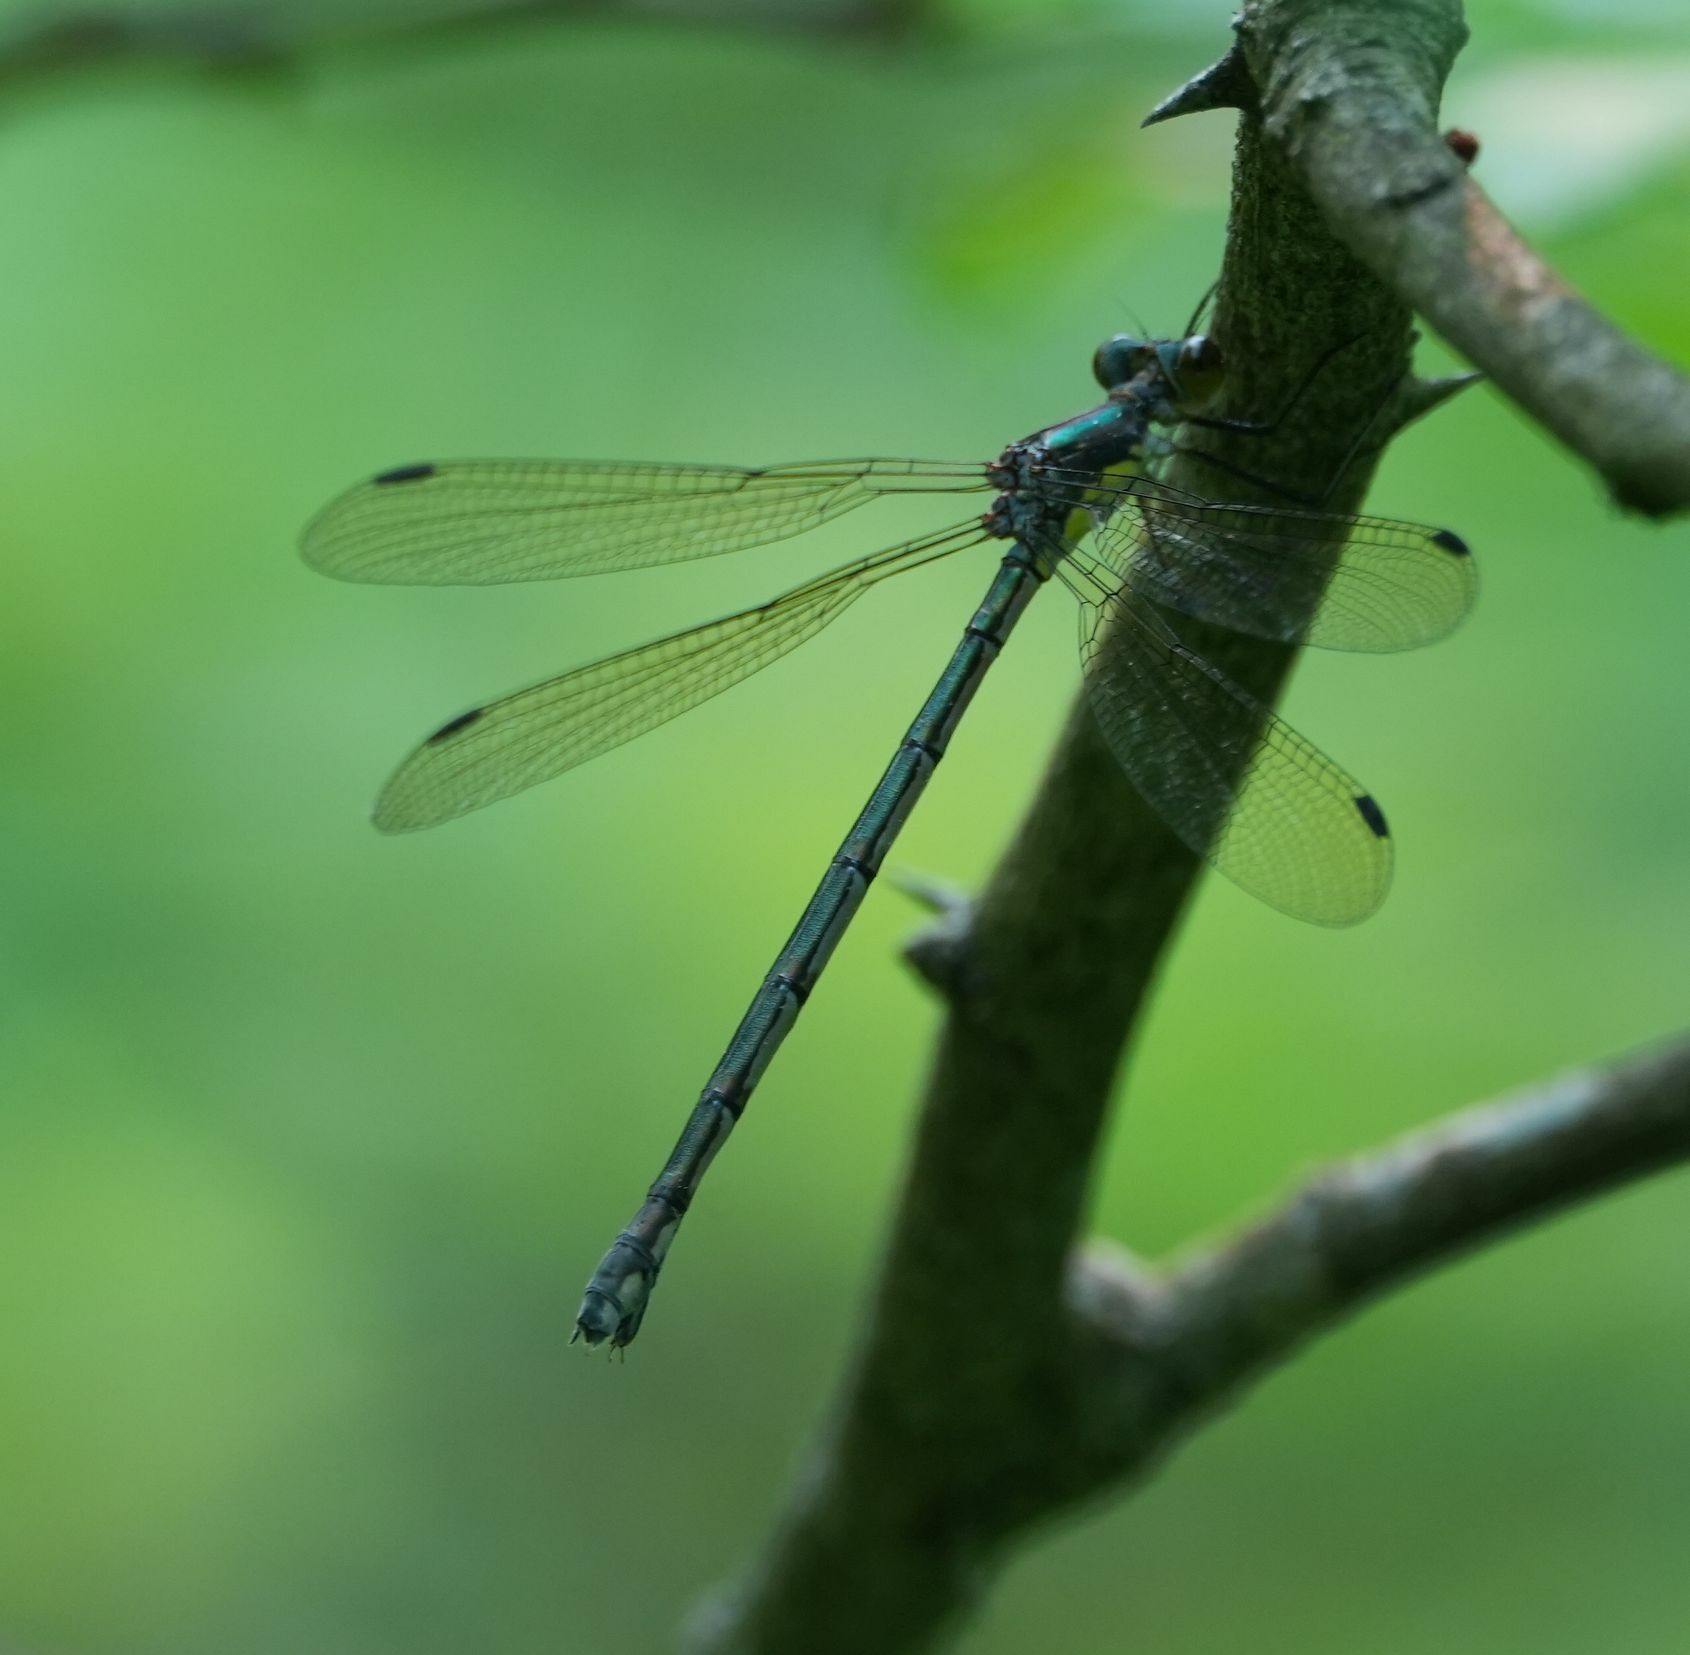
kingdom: Animalia
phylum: Arthropoda
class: Insecta
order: Odonata
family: Lestidae
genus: Lestes
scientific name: Lestes eurinus
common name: Amber-winged spreadwing
